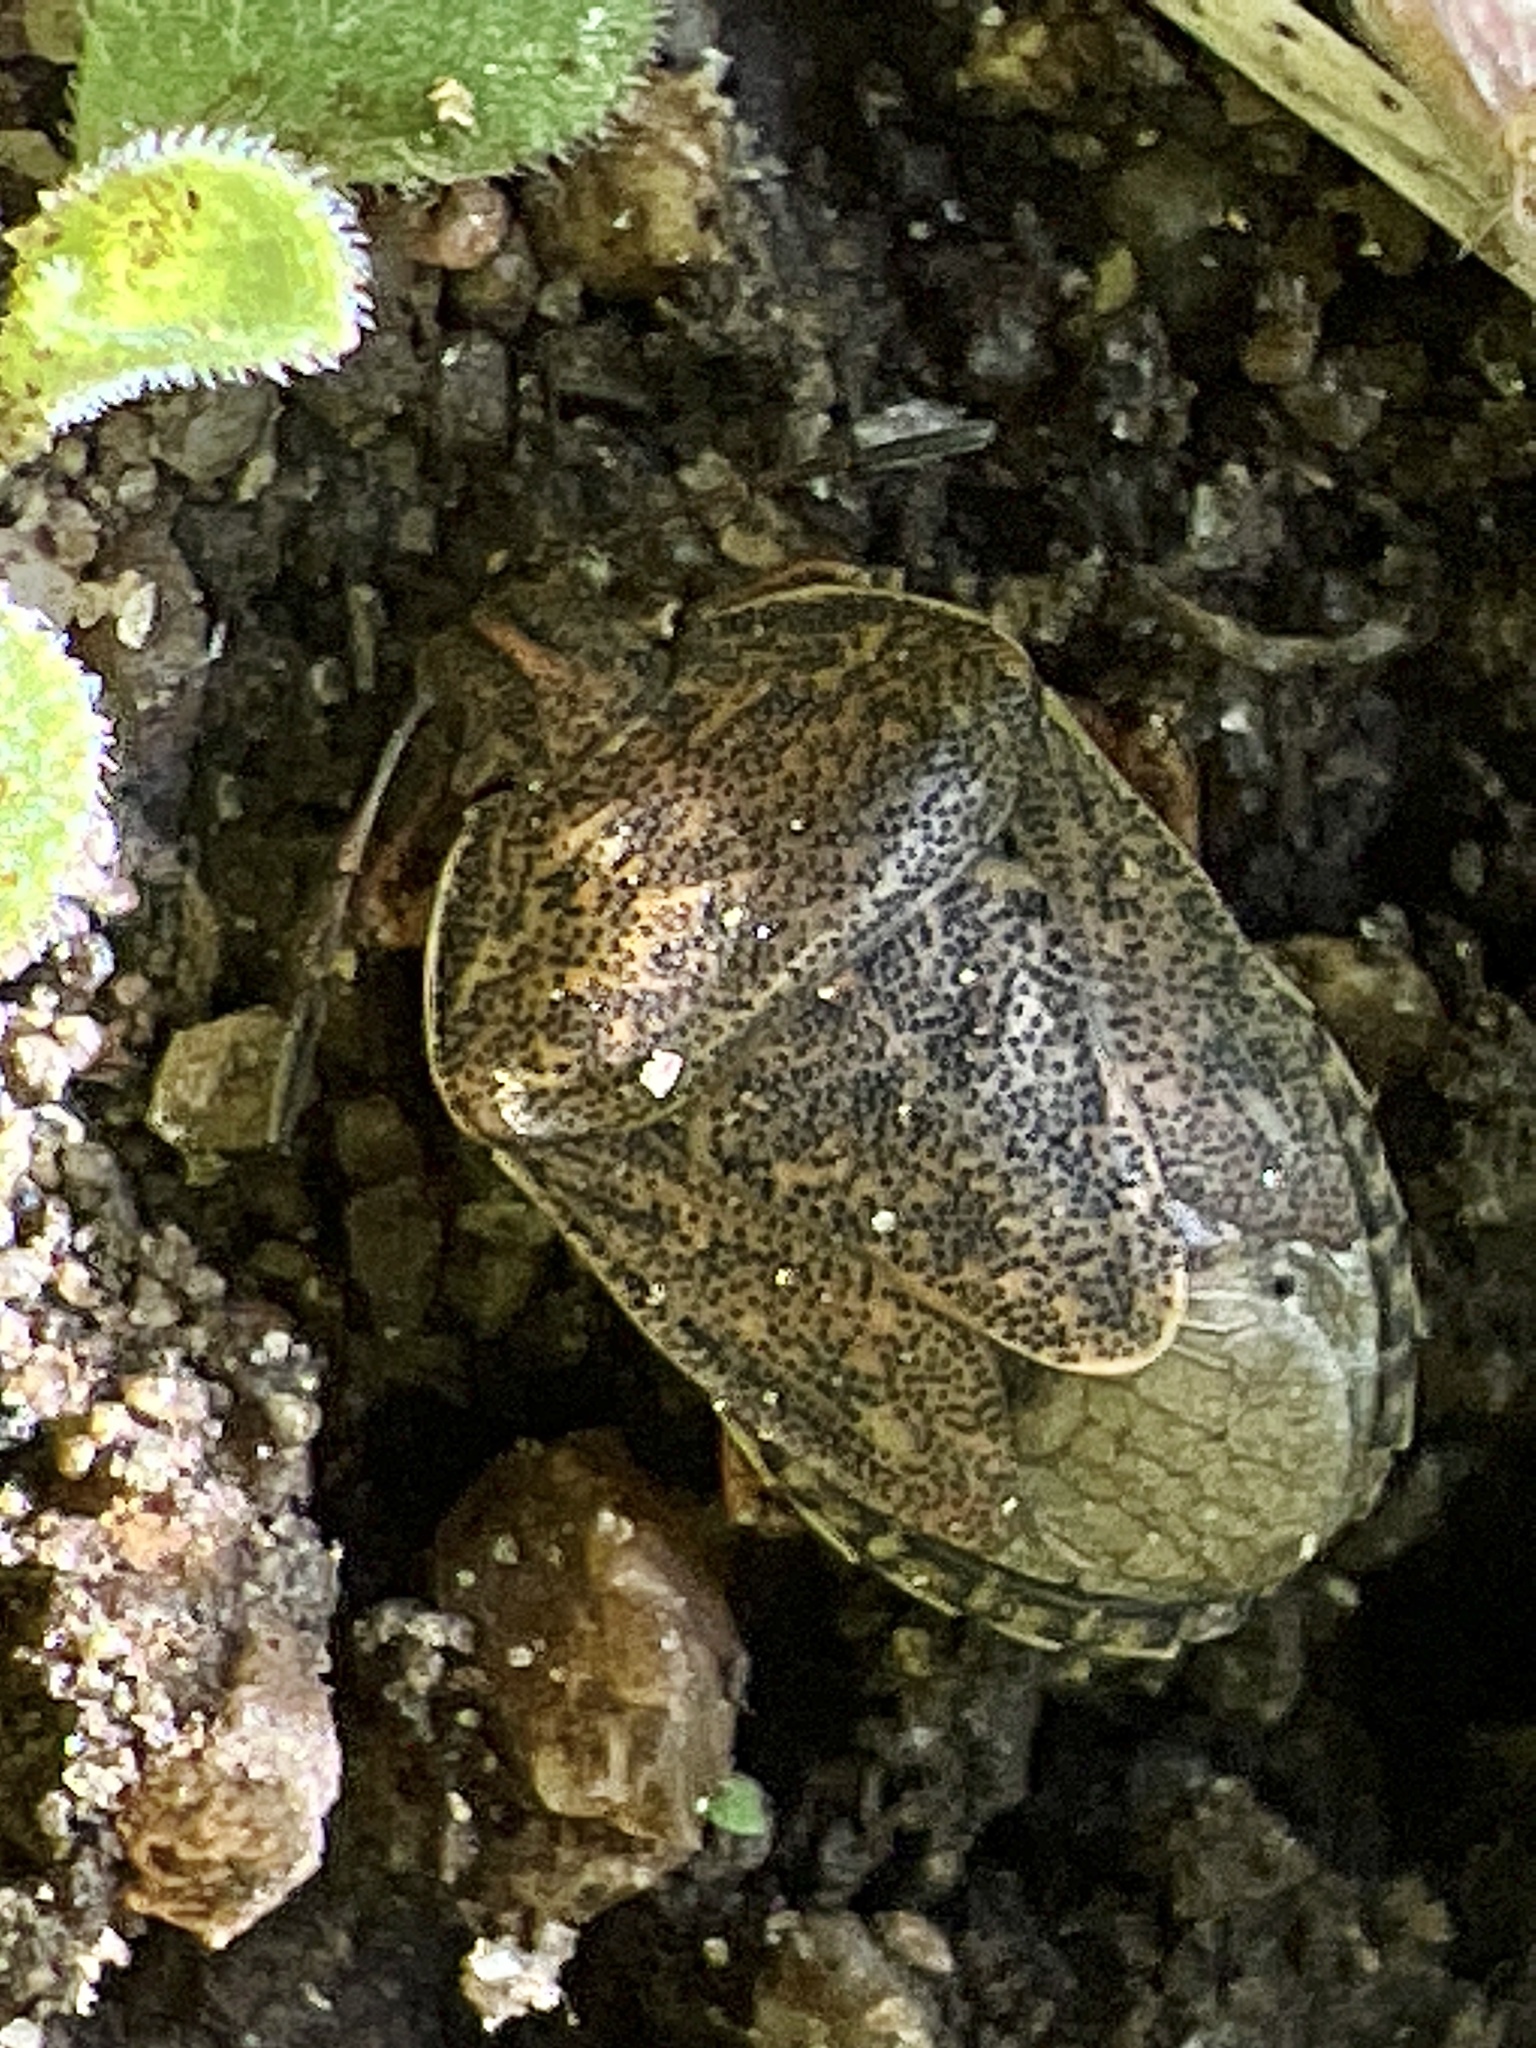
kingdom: Animalia
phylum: Arthropoda
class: Insecta
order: Hemiptera
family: Pentatomidae
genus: Hymenarcys
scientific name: Hymenarcys nervosa
